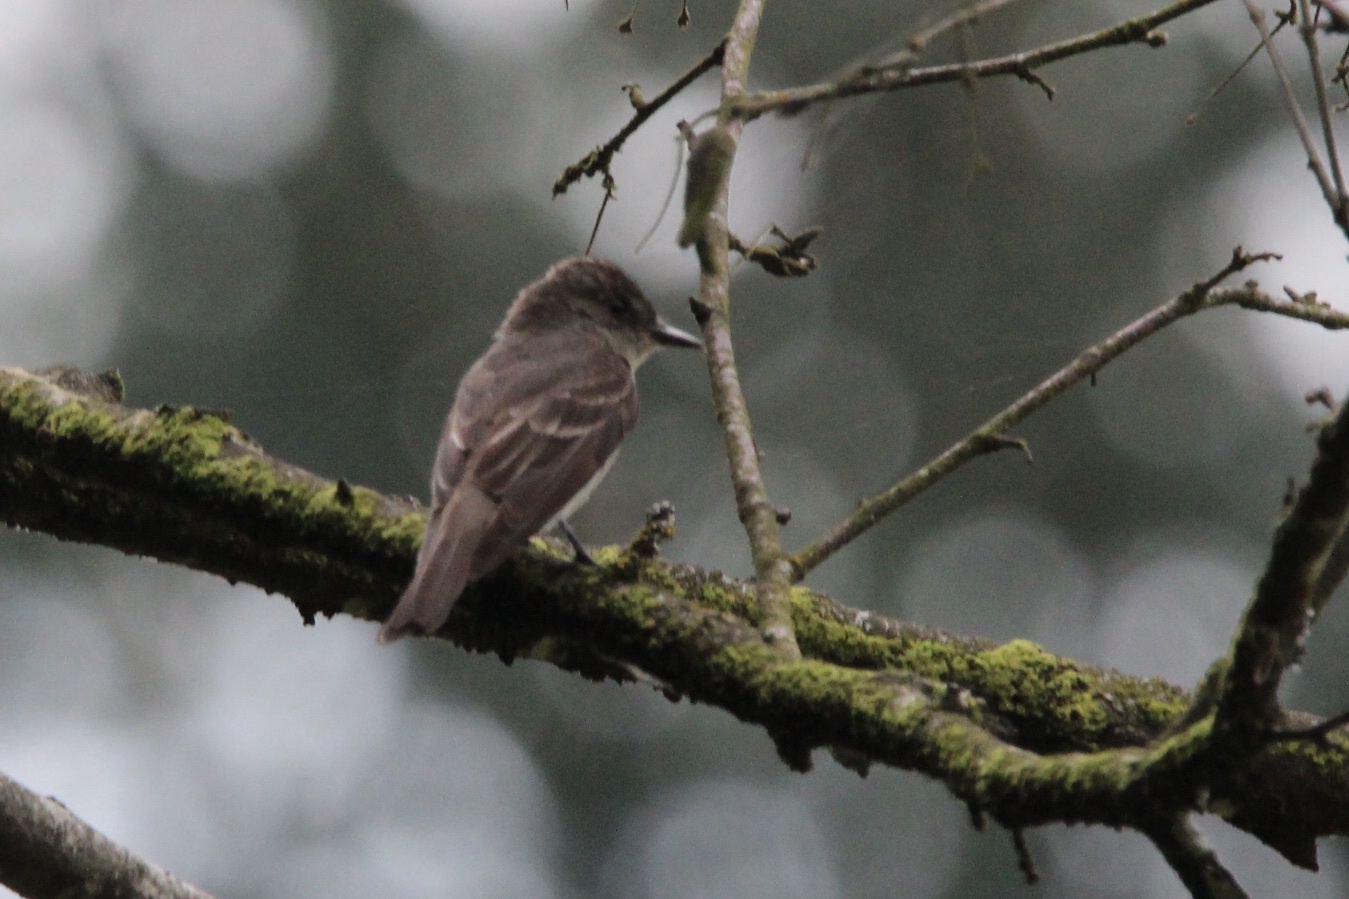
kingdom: Animalia
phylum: Chordata
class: Aves
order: Passeriformes
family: Tyrannidae
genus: Contopus
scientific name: Contopus sordidulus
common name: Western wood-pewee
